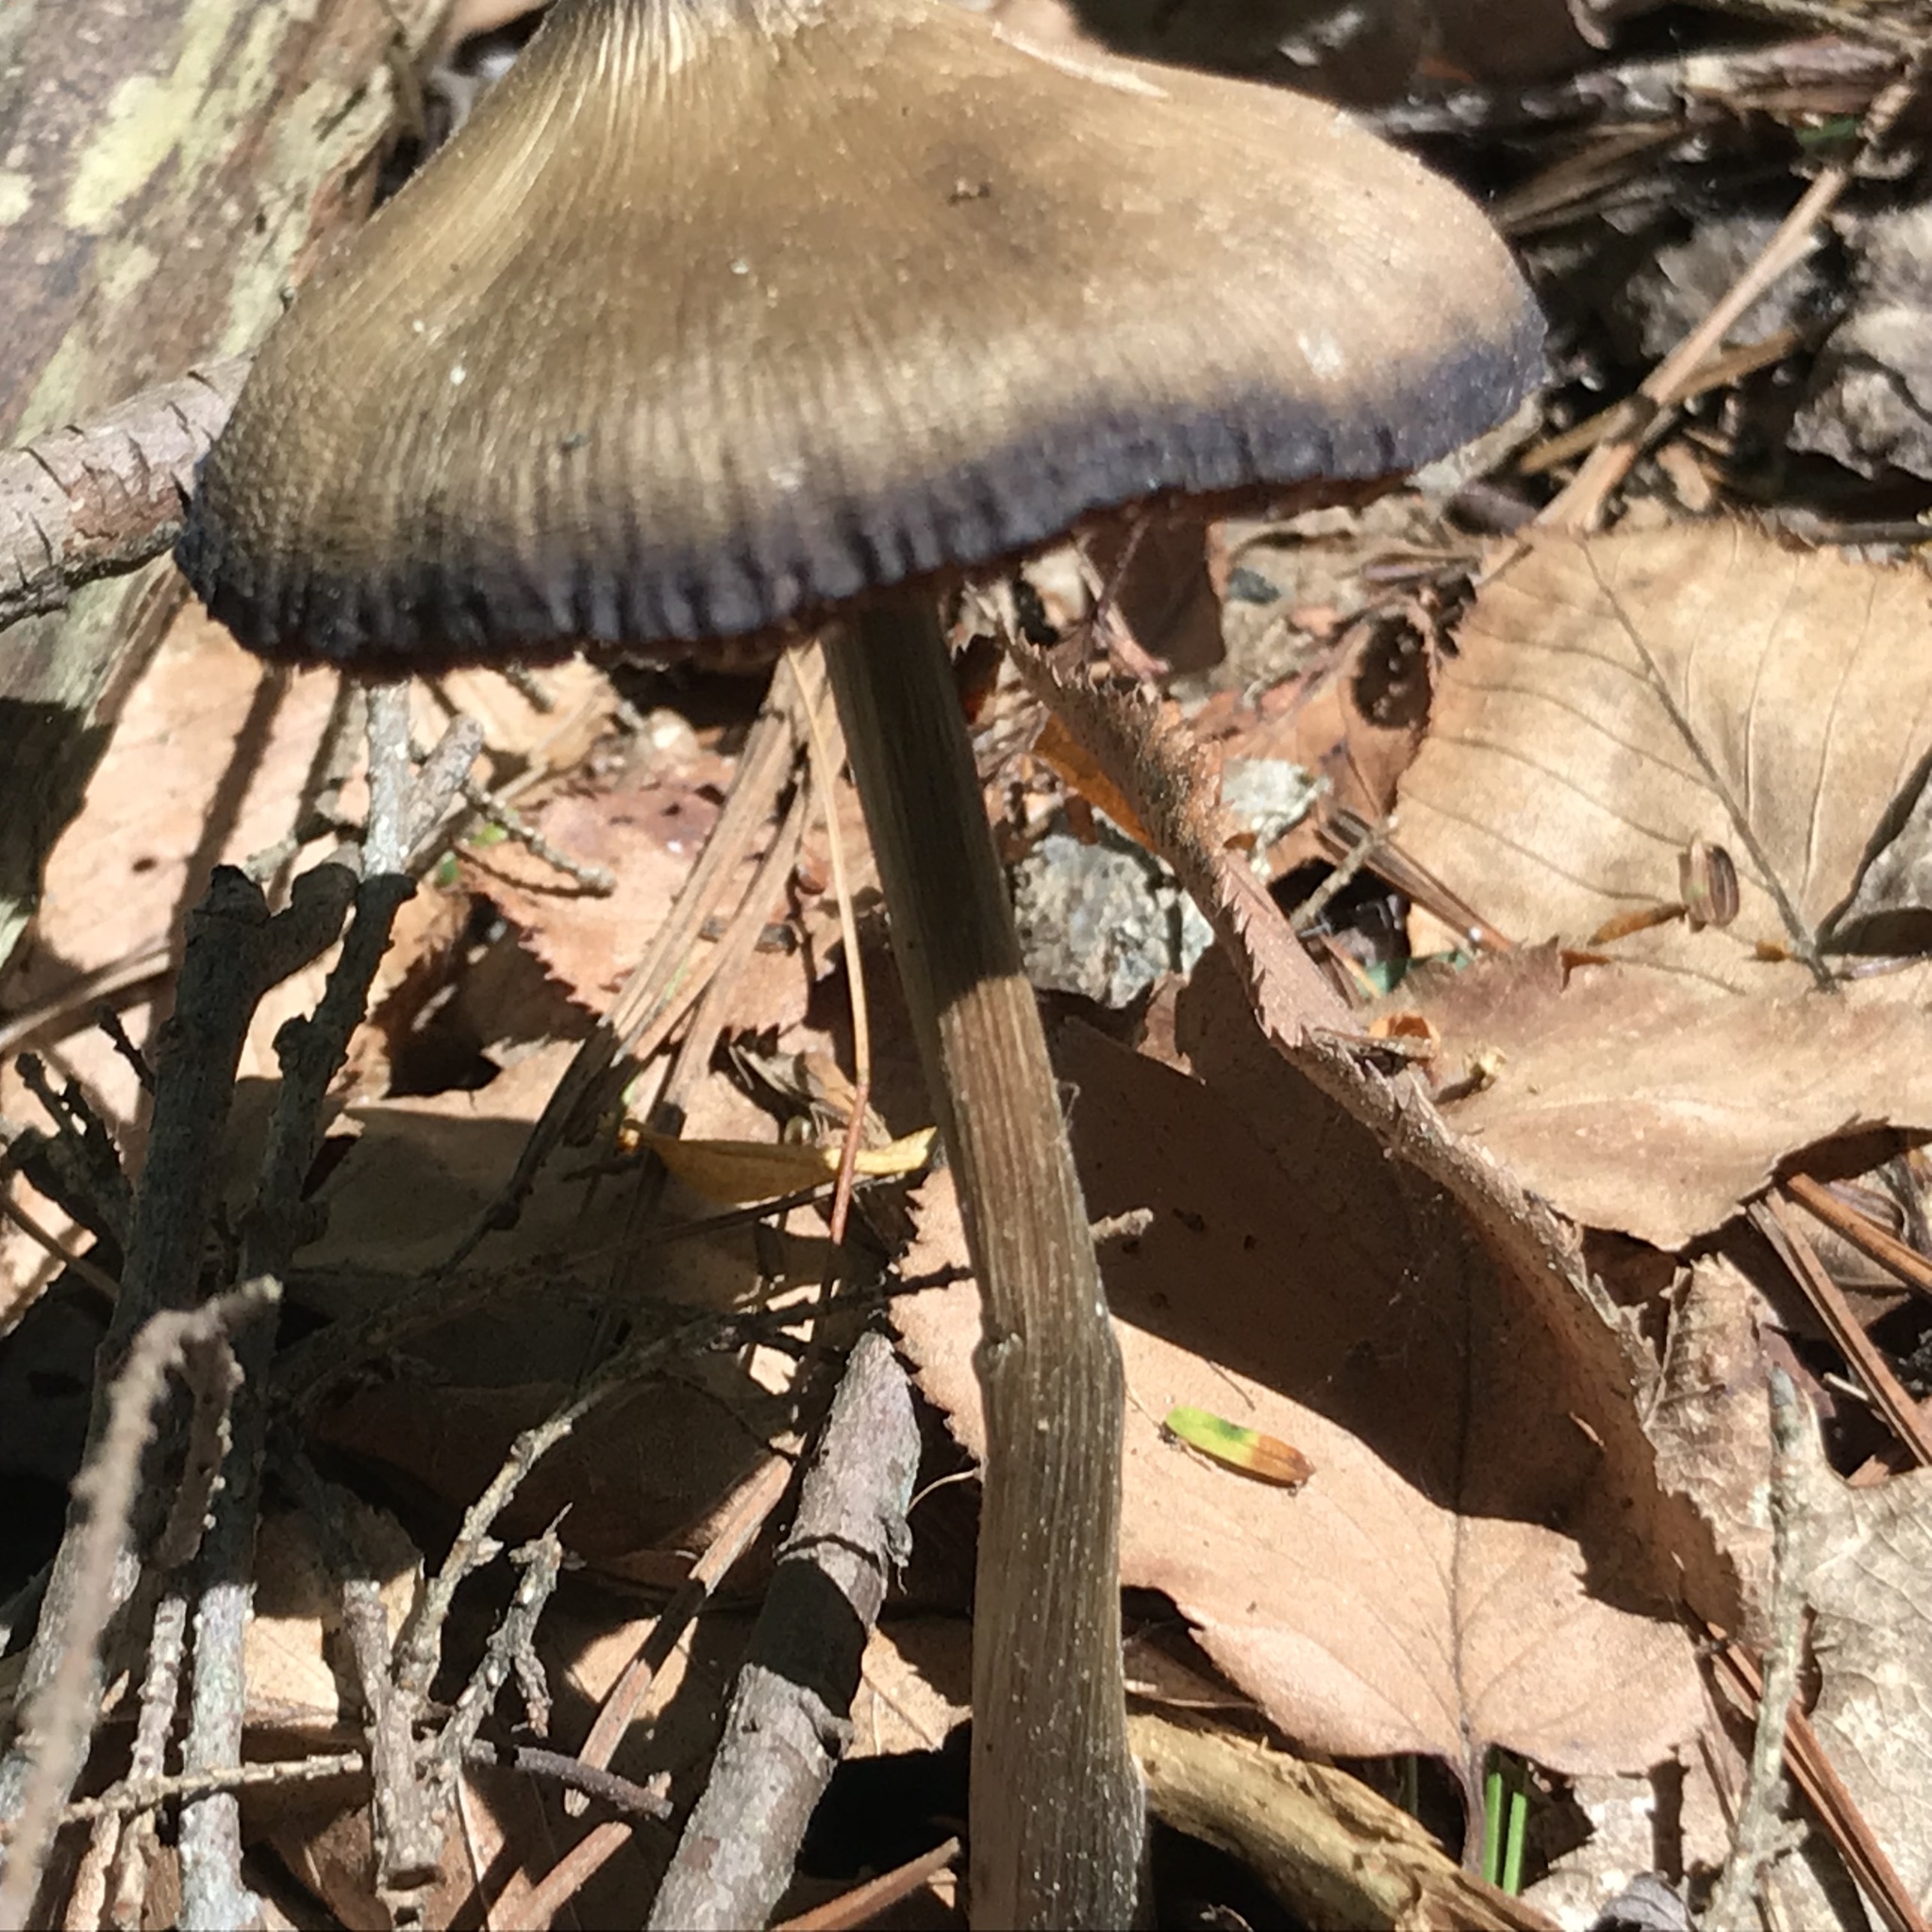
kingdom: Fungi
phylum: Basidiomycota
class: Agaricomycetes
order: Agaricales
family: Entolomataceae
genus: Entoloma
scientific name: Entoloma strictius
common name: Straight-stalked entoloma
